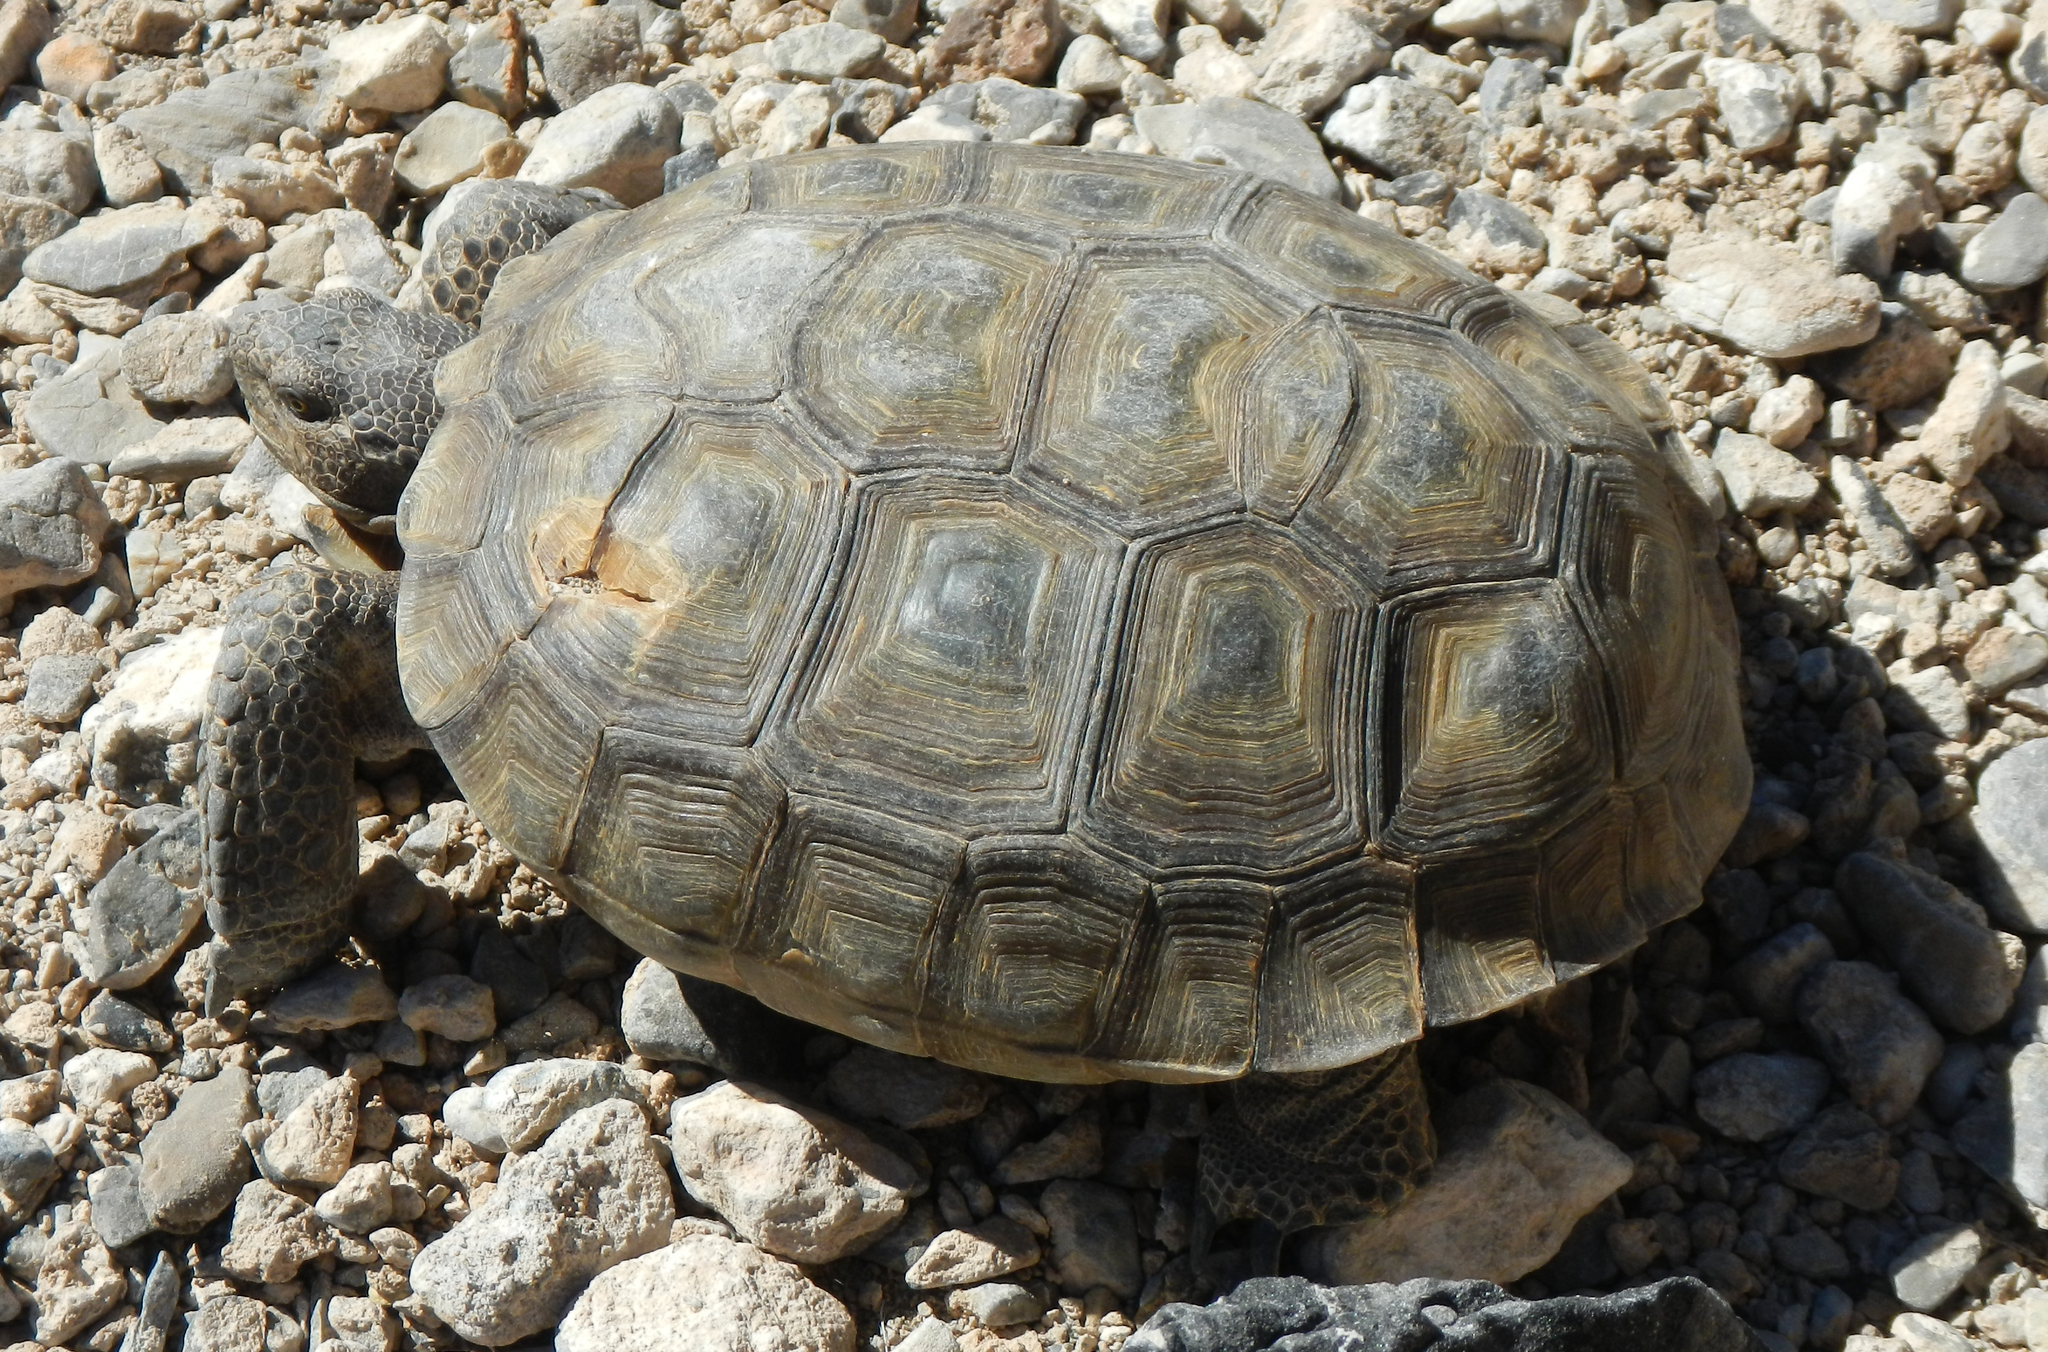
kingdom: Animalia
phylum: Chordata
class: Testudines
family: Testudinidae
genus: Gopherus
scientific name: Gopherus agassizii
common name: Mojave desert tortoise
